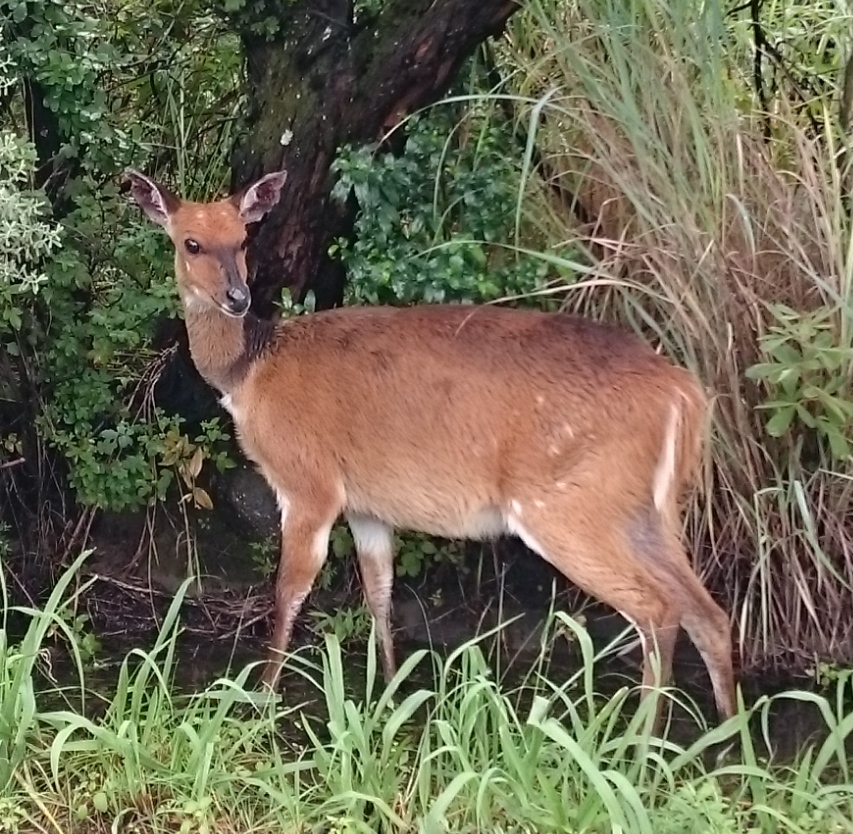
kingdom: Animalia
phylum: Chordata
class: Mammalia
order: Artiodactyla
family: Bovidae
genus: Tragelaphus
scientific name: Tragelaphus scriptus
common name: Bushbuck
